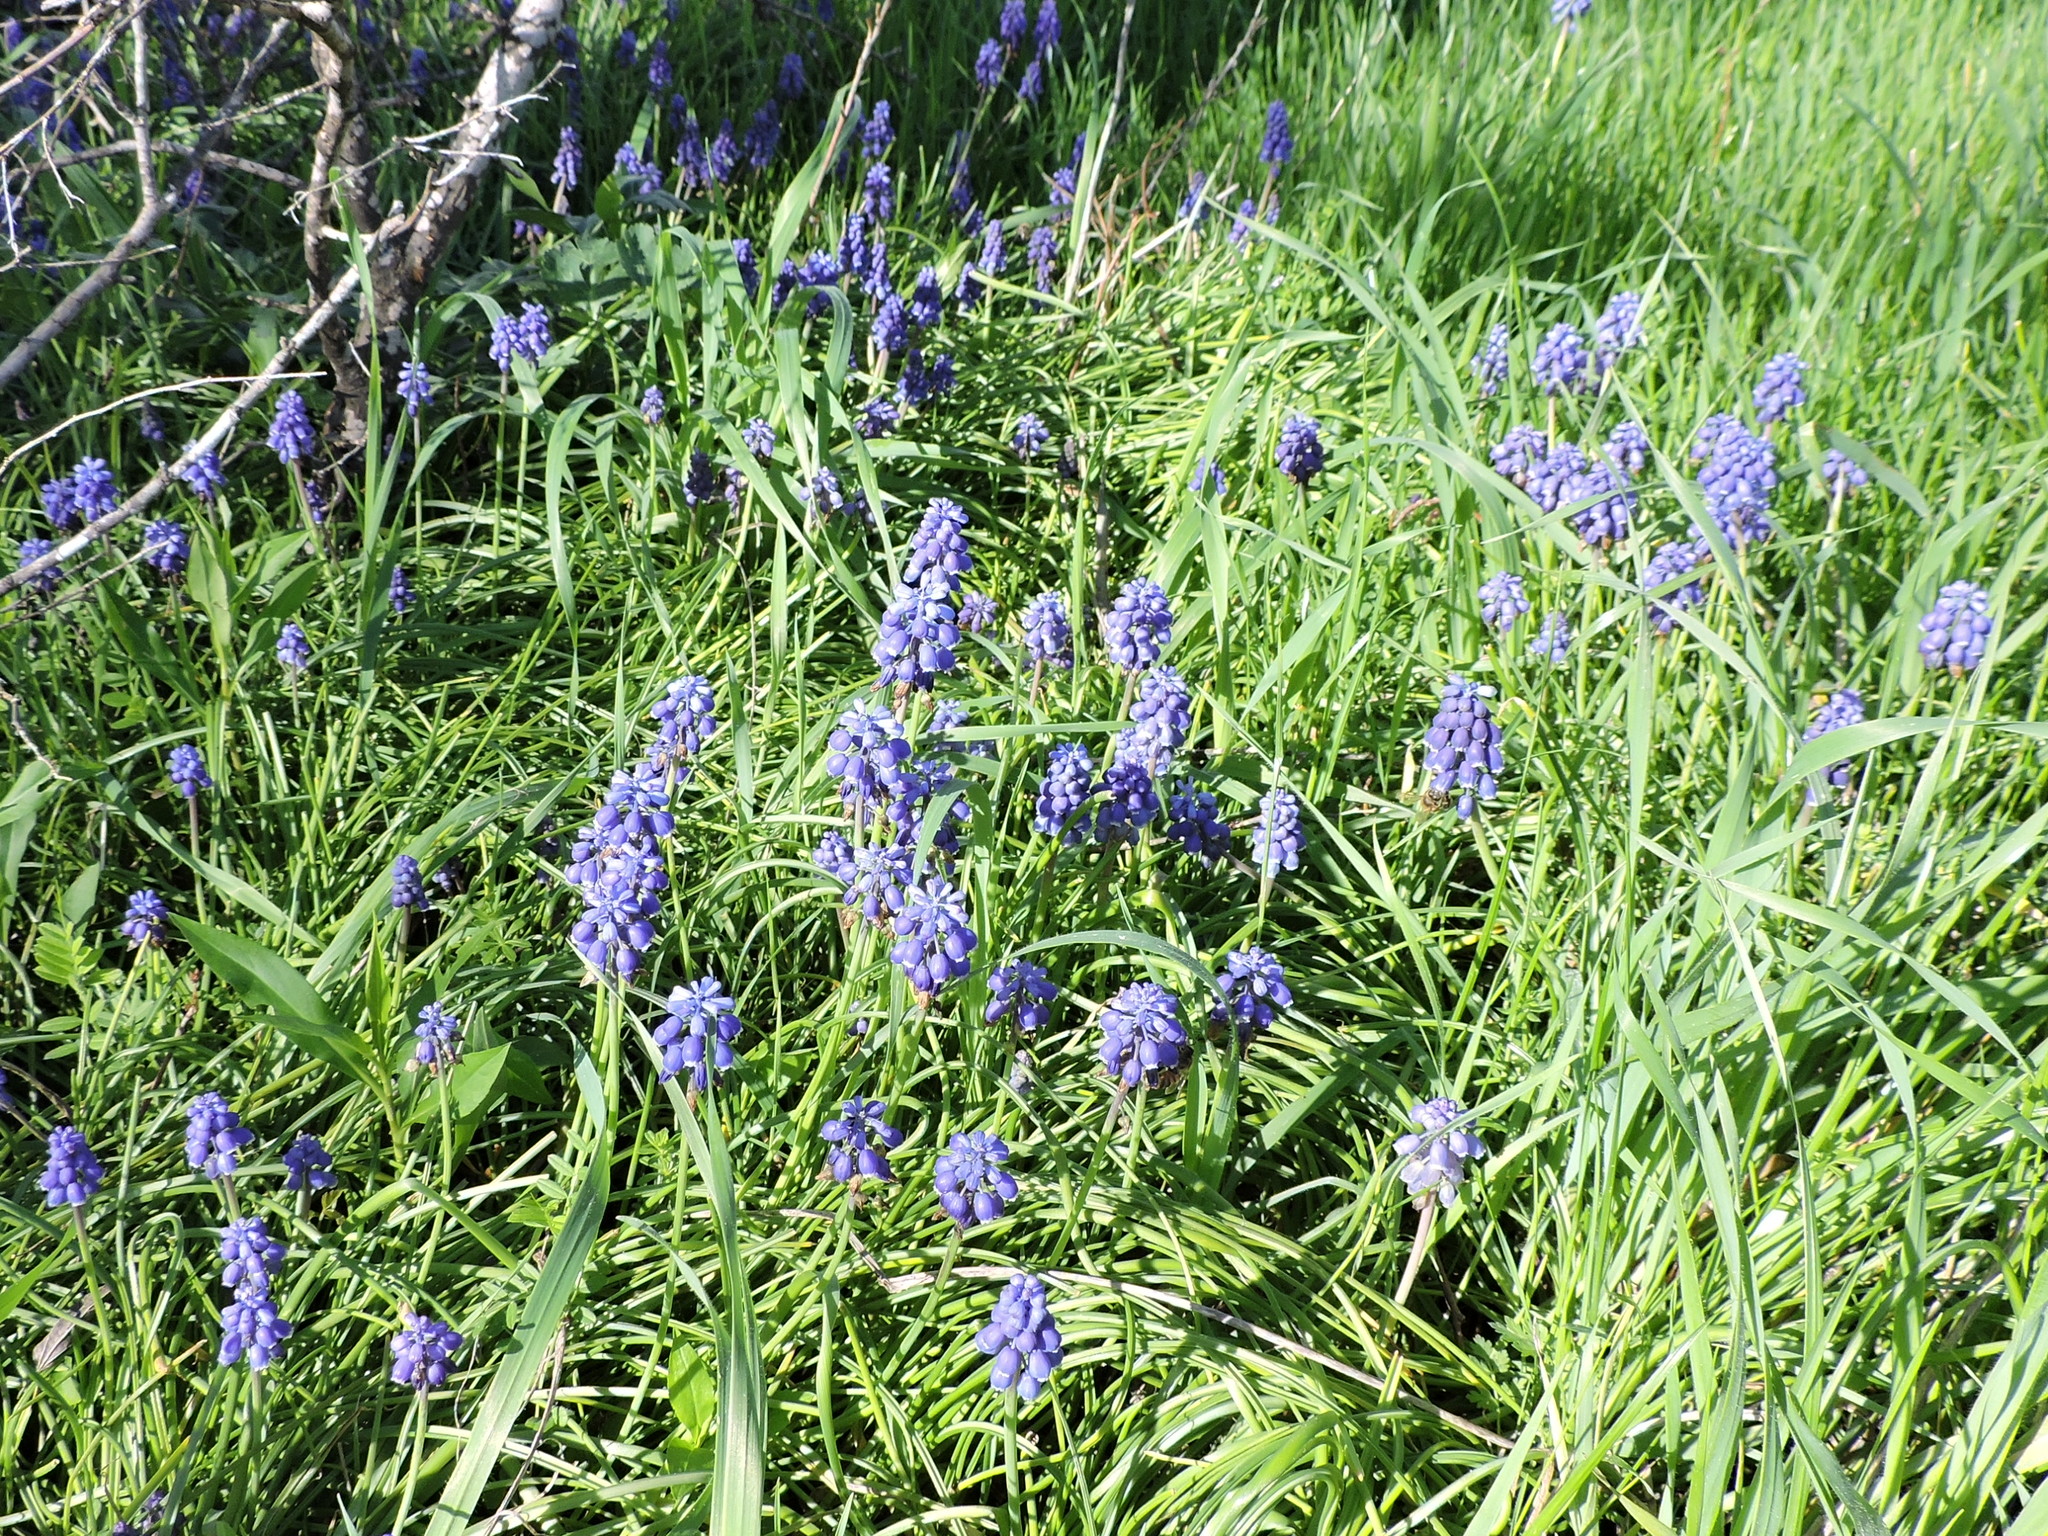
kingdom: Plantae
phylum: Tracheophyta
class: Liliopsida
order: Asparagales
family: Asparagaceae
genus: Muscari
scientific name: Muscari neglectum
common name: Grape-hyacinth
